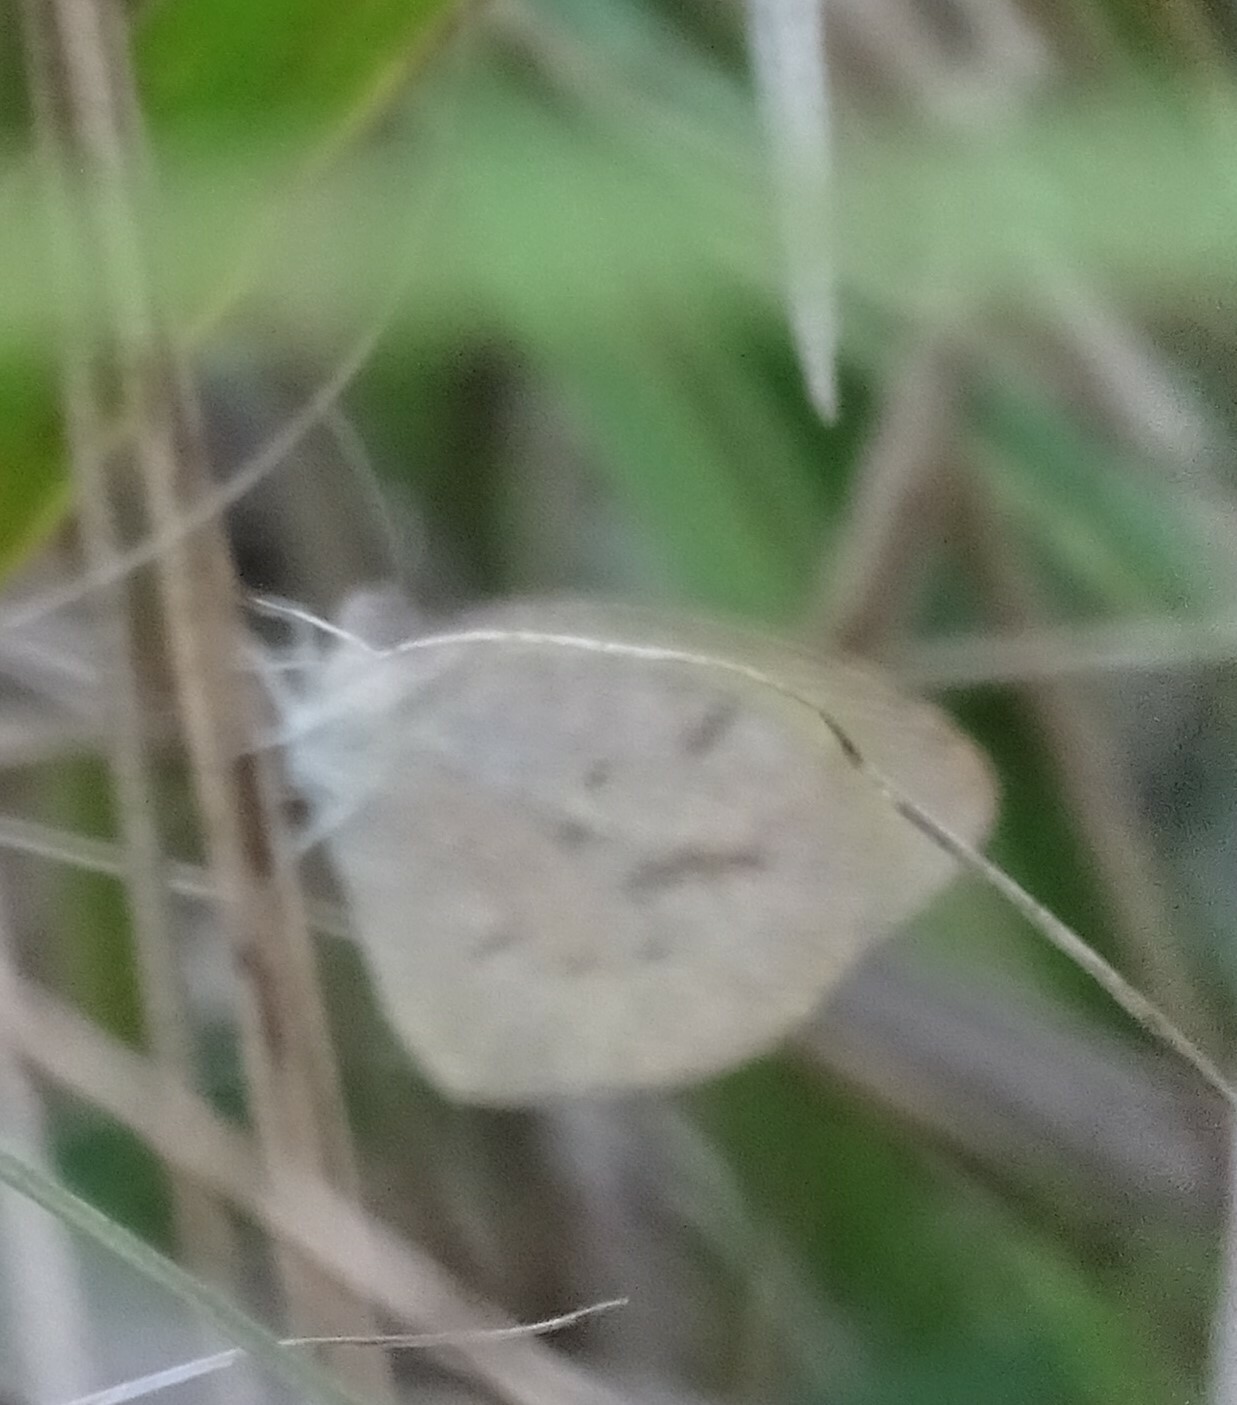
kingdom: Animalia
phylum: Arthropoda
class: Insecta
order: Lepidoptera
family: Pieridae
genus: Eurema
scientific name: Eurema daira
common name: Barred sulphur
